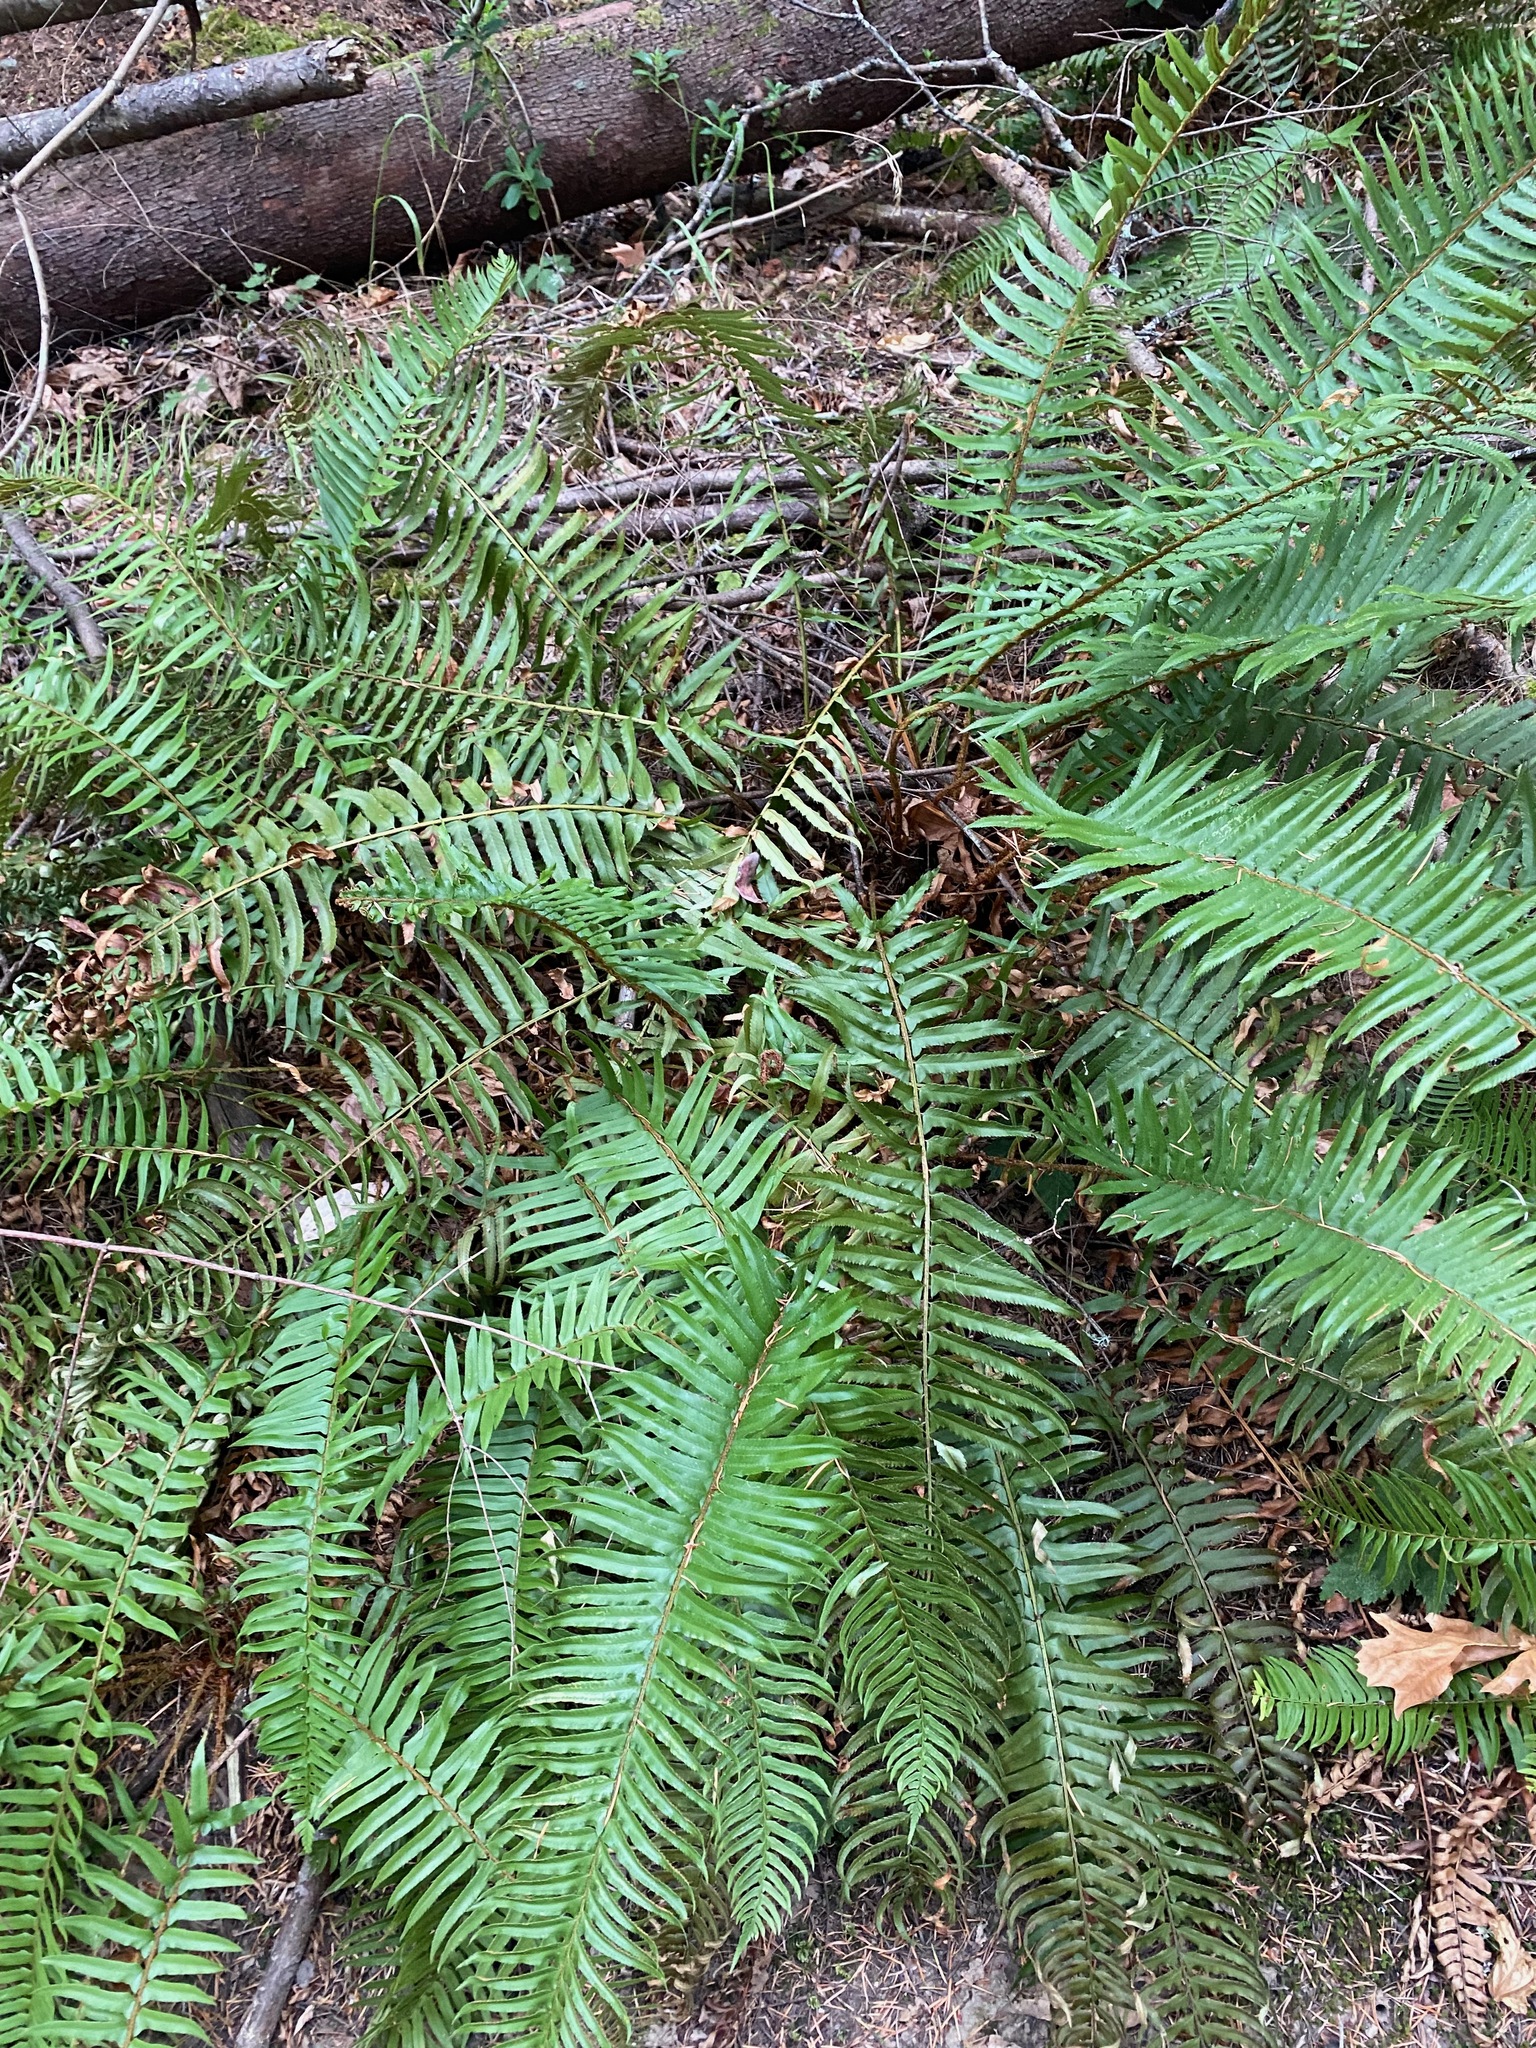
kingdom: Plantae
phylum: Tracheophyta
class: Polypodiopsida
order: Polypodiales
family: Dryopteridaceae
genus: Polystichum
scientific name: Polystichum munitum
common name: Western sword-fern
